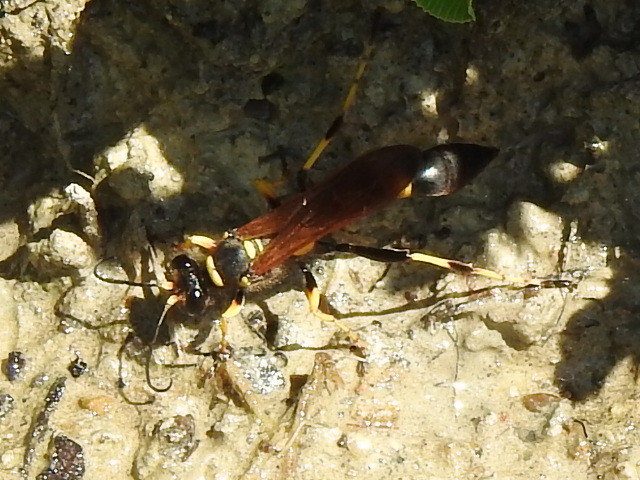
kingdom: Animalia
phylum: Arthropoda
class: Insecta
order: Hymenoptera
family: Sphecidae
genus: Sceliphron
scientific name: Sceliphron caementarium
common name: Mud dauber
